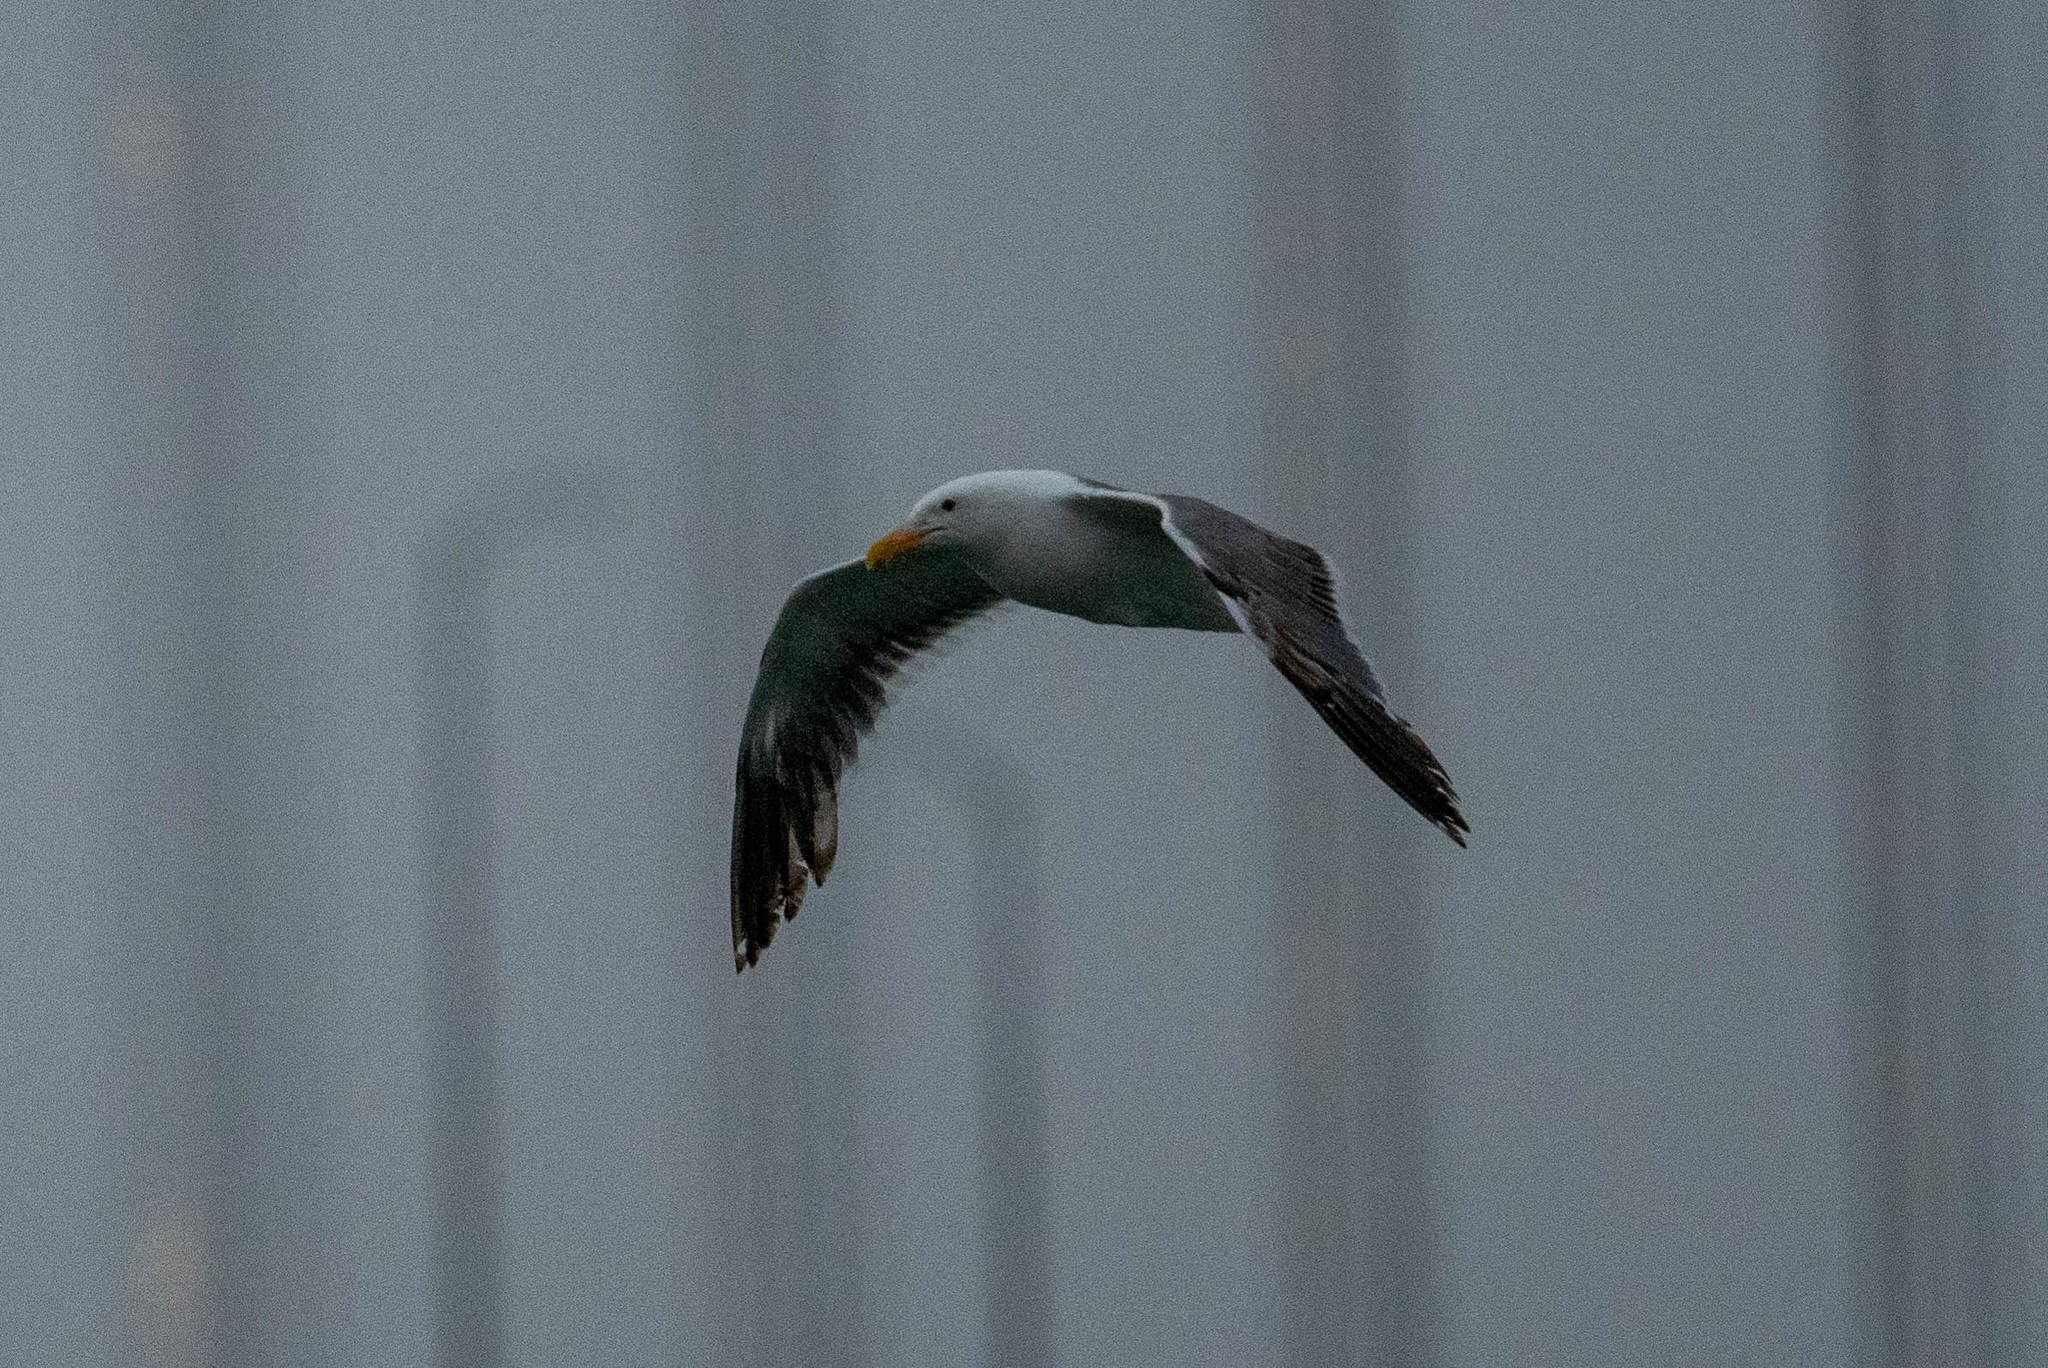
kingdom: Animalia
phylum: Chordata
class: Aves
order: Charadriiformes
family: Laridae
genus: Larus
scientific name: Larus occidentalis
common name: Western gull
